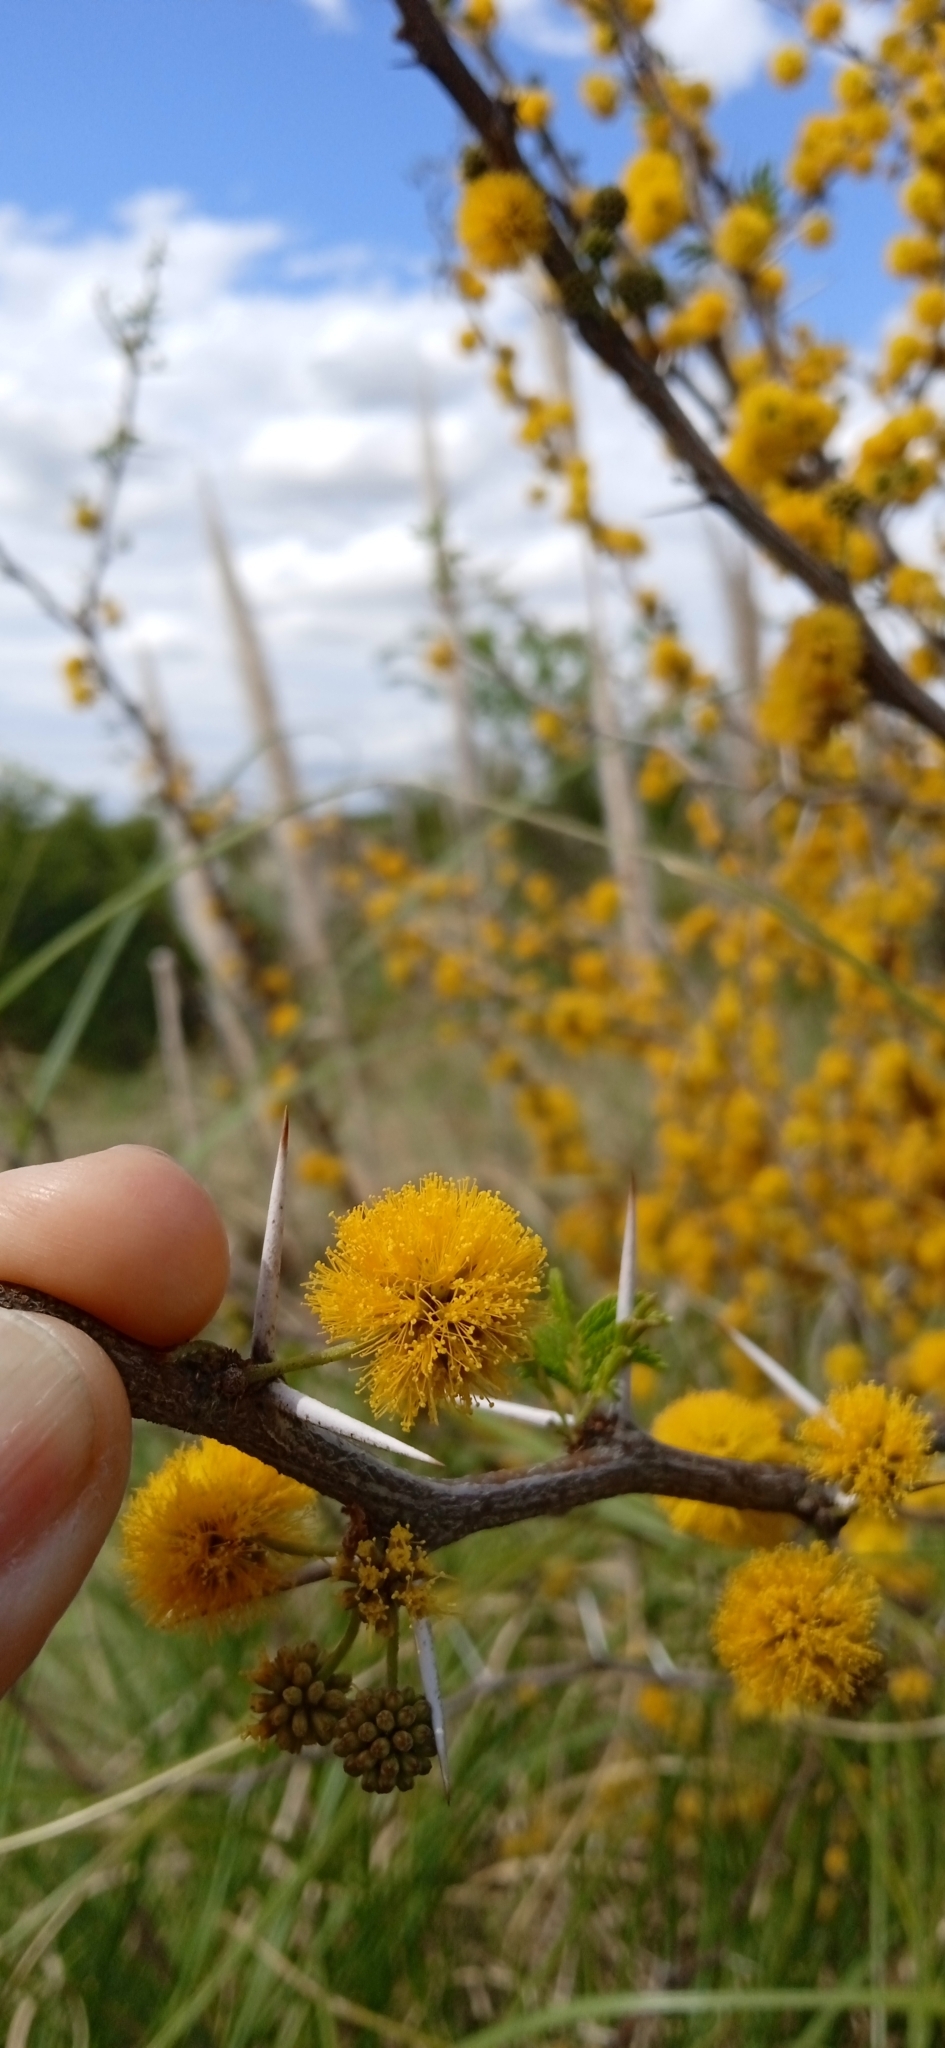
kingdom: Plantae
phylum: Tracheophyta
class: Magnoliopsida
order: Fabales
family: Fabaceae
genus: Vachellia
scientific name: Vachellia caven
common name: Roman cassie
